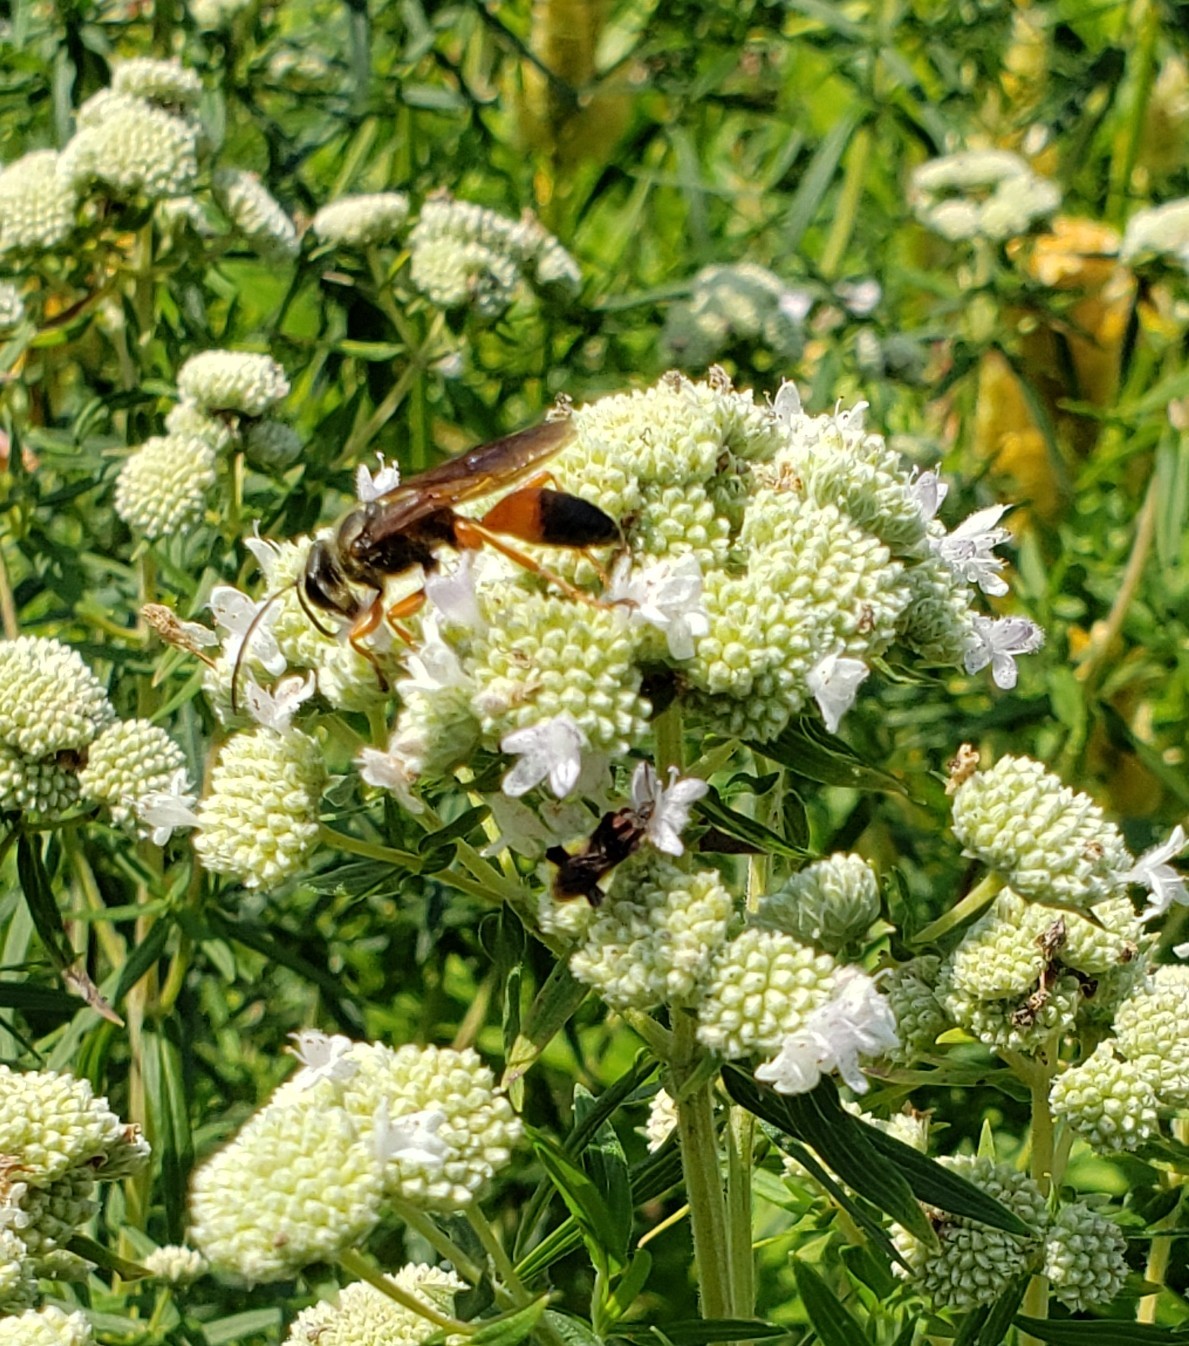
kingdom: Animalia
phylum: Arthropoda
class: Insecta
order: Hymenoptera
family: Sphecidae
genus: Sphex
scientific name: Sphex ichneumoneus
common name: Great golden digger wasp
